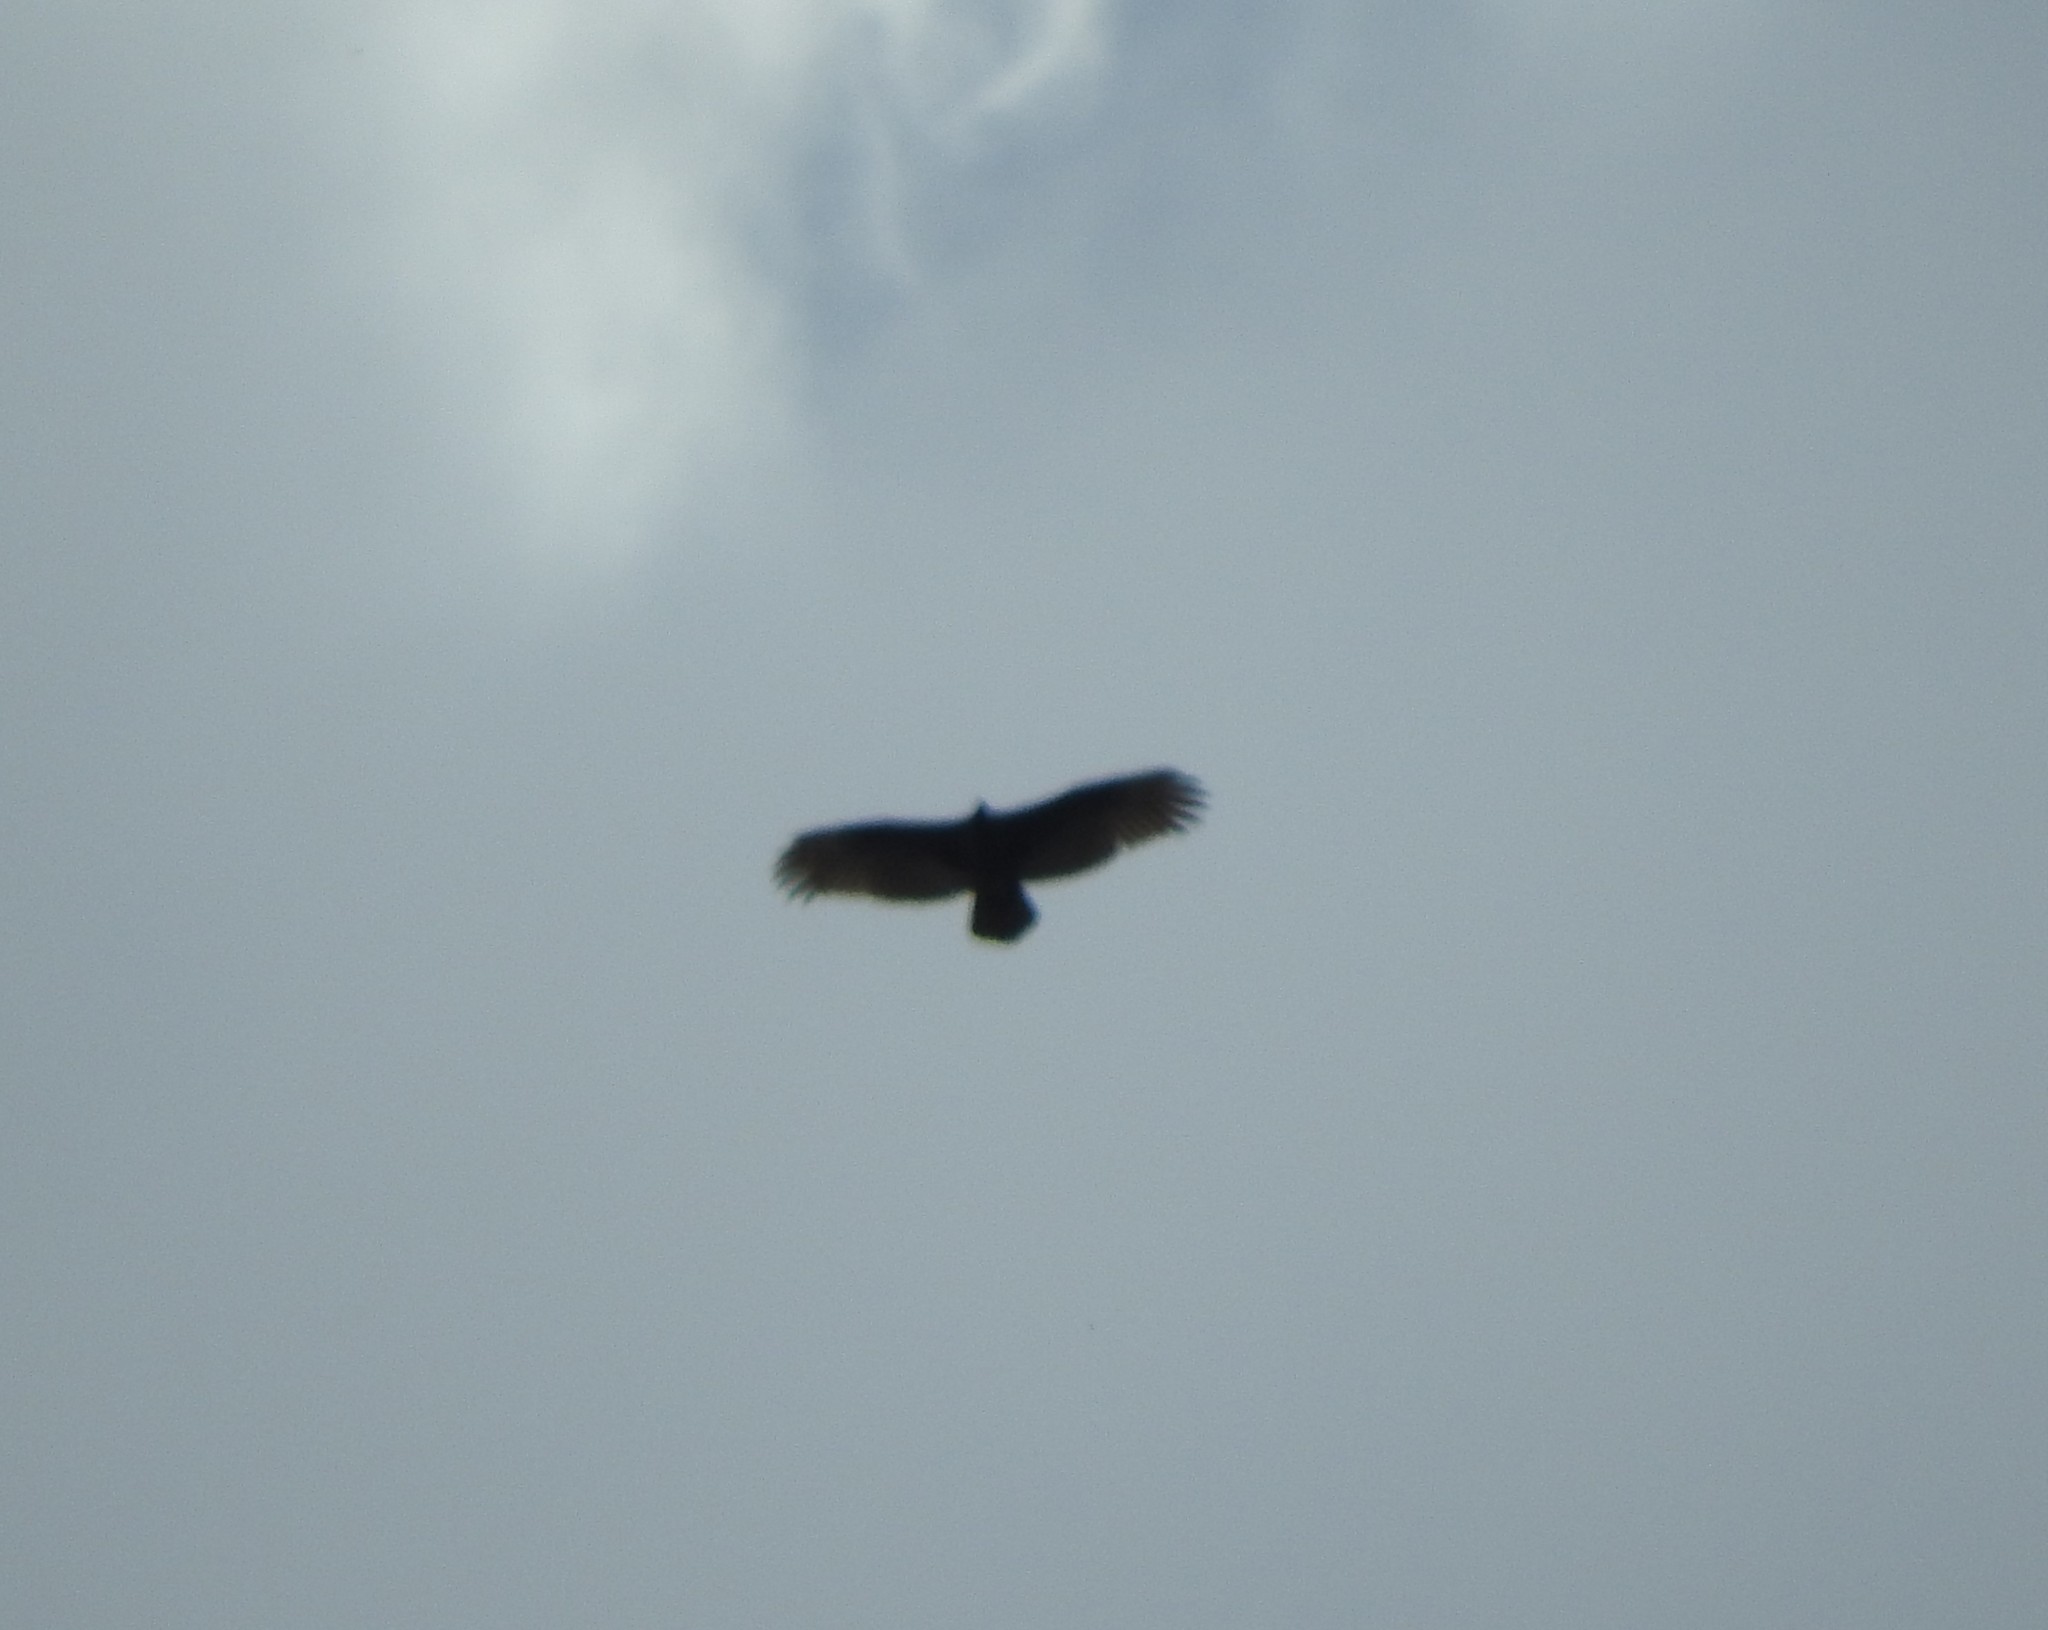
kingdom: Animalia
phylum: Chordata
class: Aves
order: Accipitriformes
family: Cathartidae
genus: Cathartes
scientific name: Cathartes aura
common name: Turkey vulture
